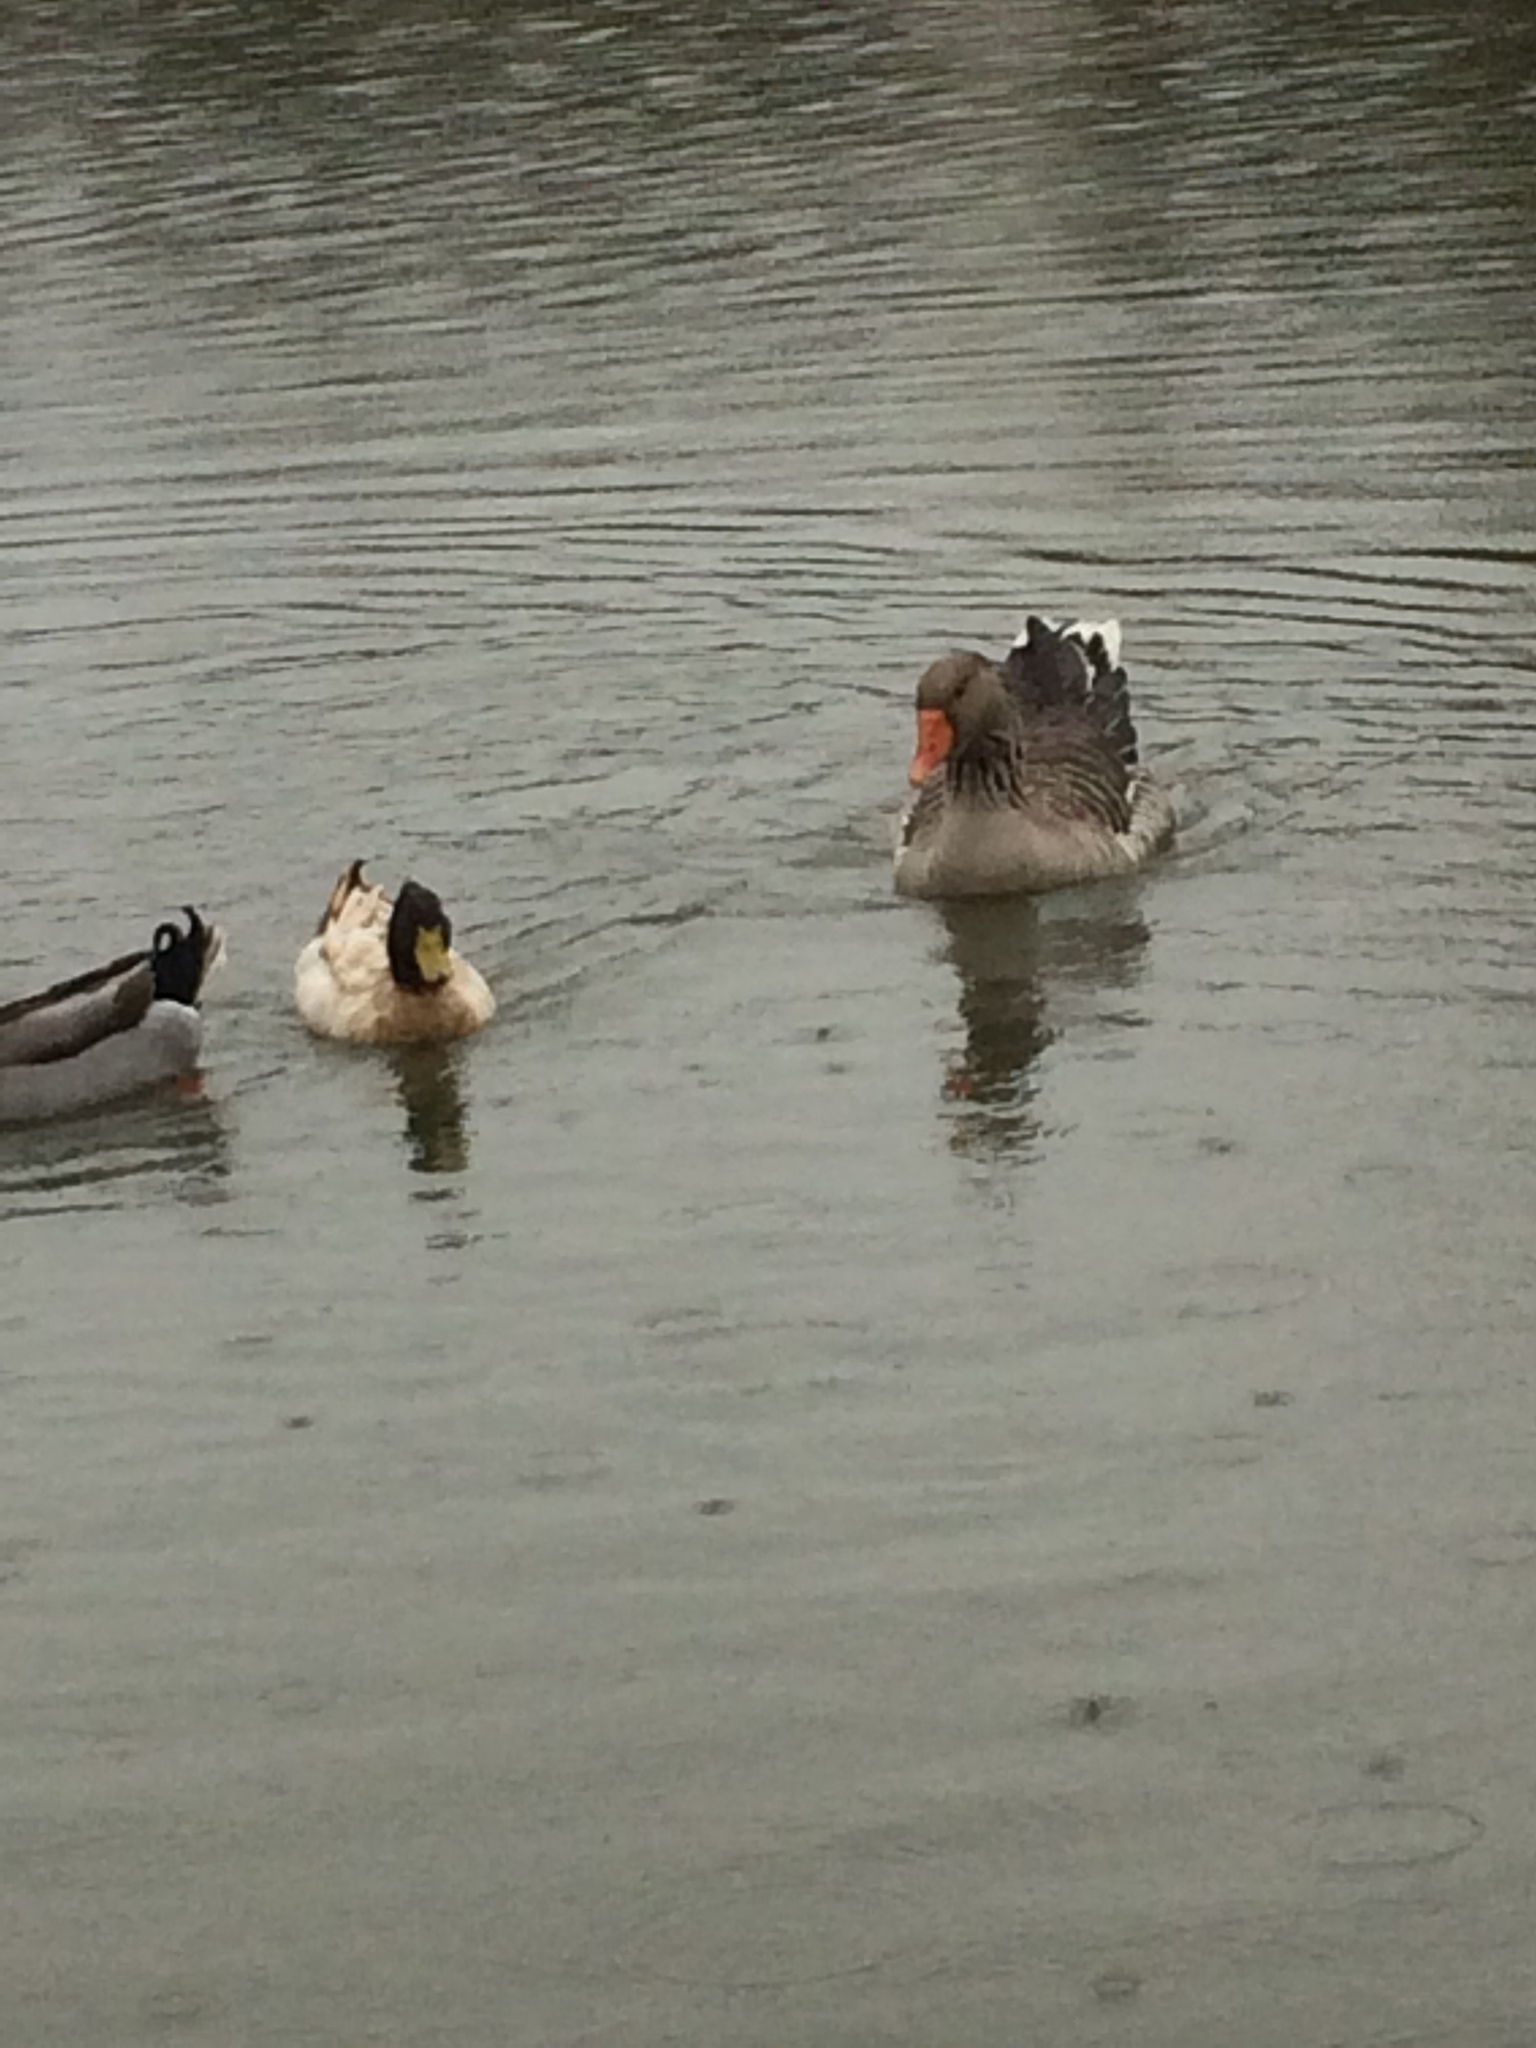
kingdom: Animalia
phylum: Chordata
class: Aves
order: Anseriformes
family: Anatidae
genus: Anser
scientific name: Anser anser
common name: Greylag goose
